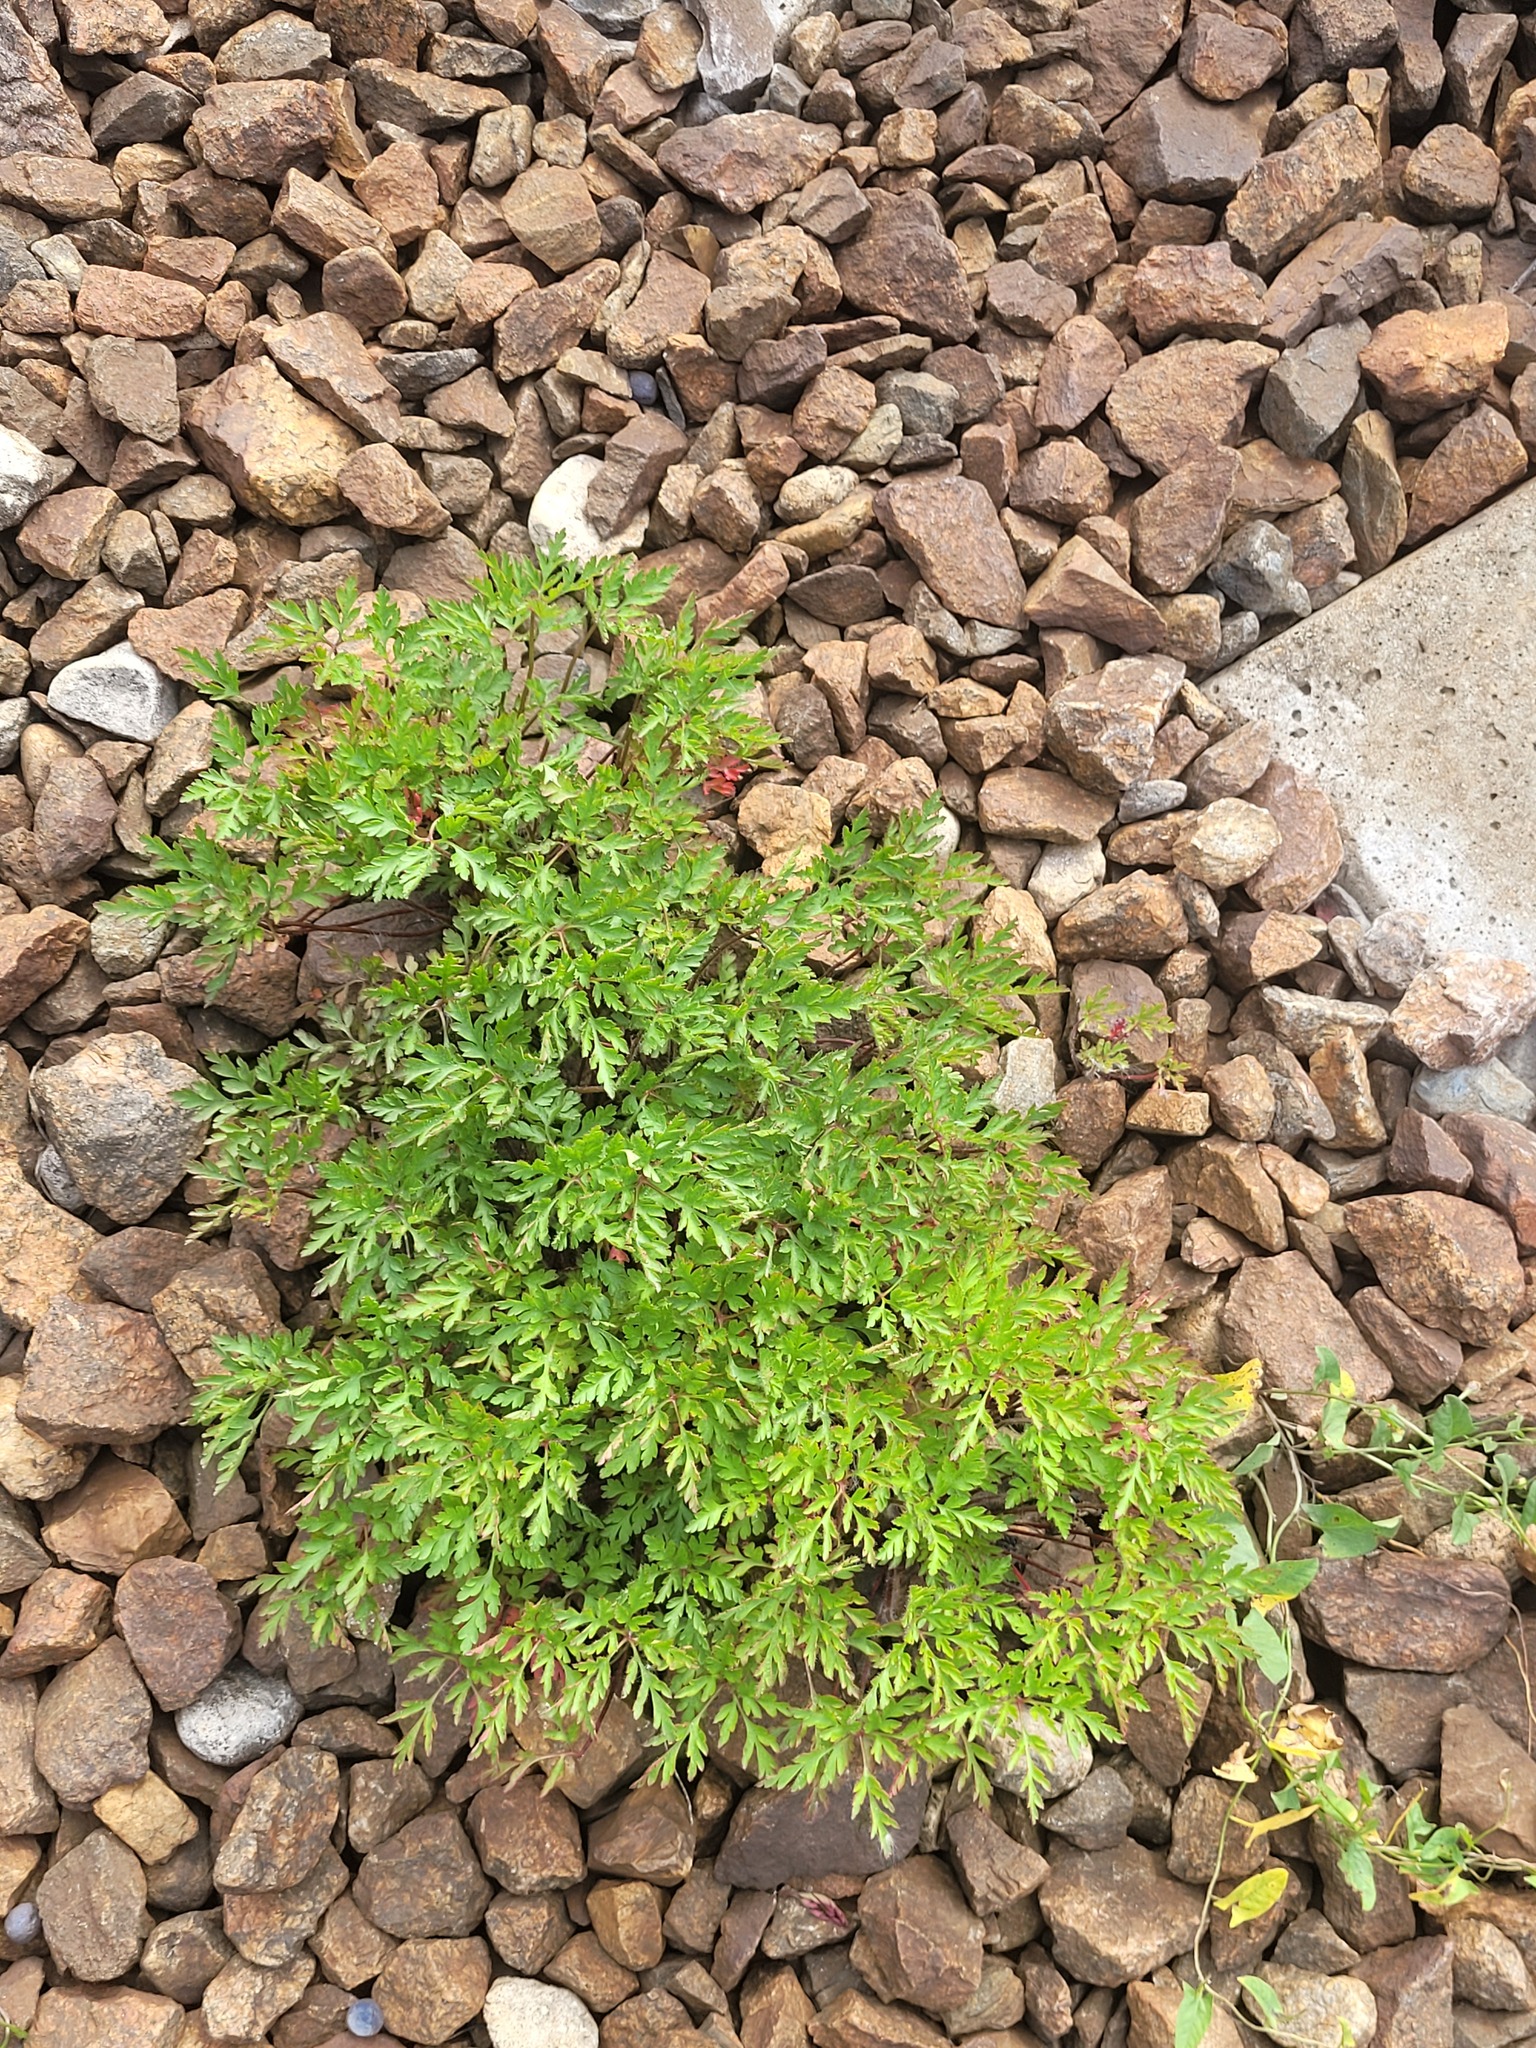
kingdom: Plantae
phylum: Tracheophyta
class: Magnoliopsida
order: Geraniales
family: Geraniaceae
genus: Geranium
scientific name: Geranium robertianum
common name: Herb-robert
